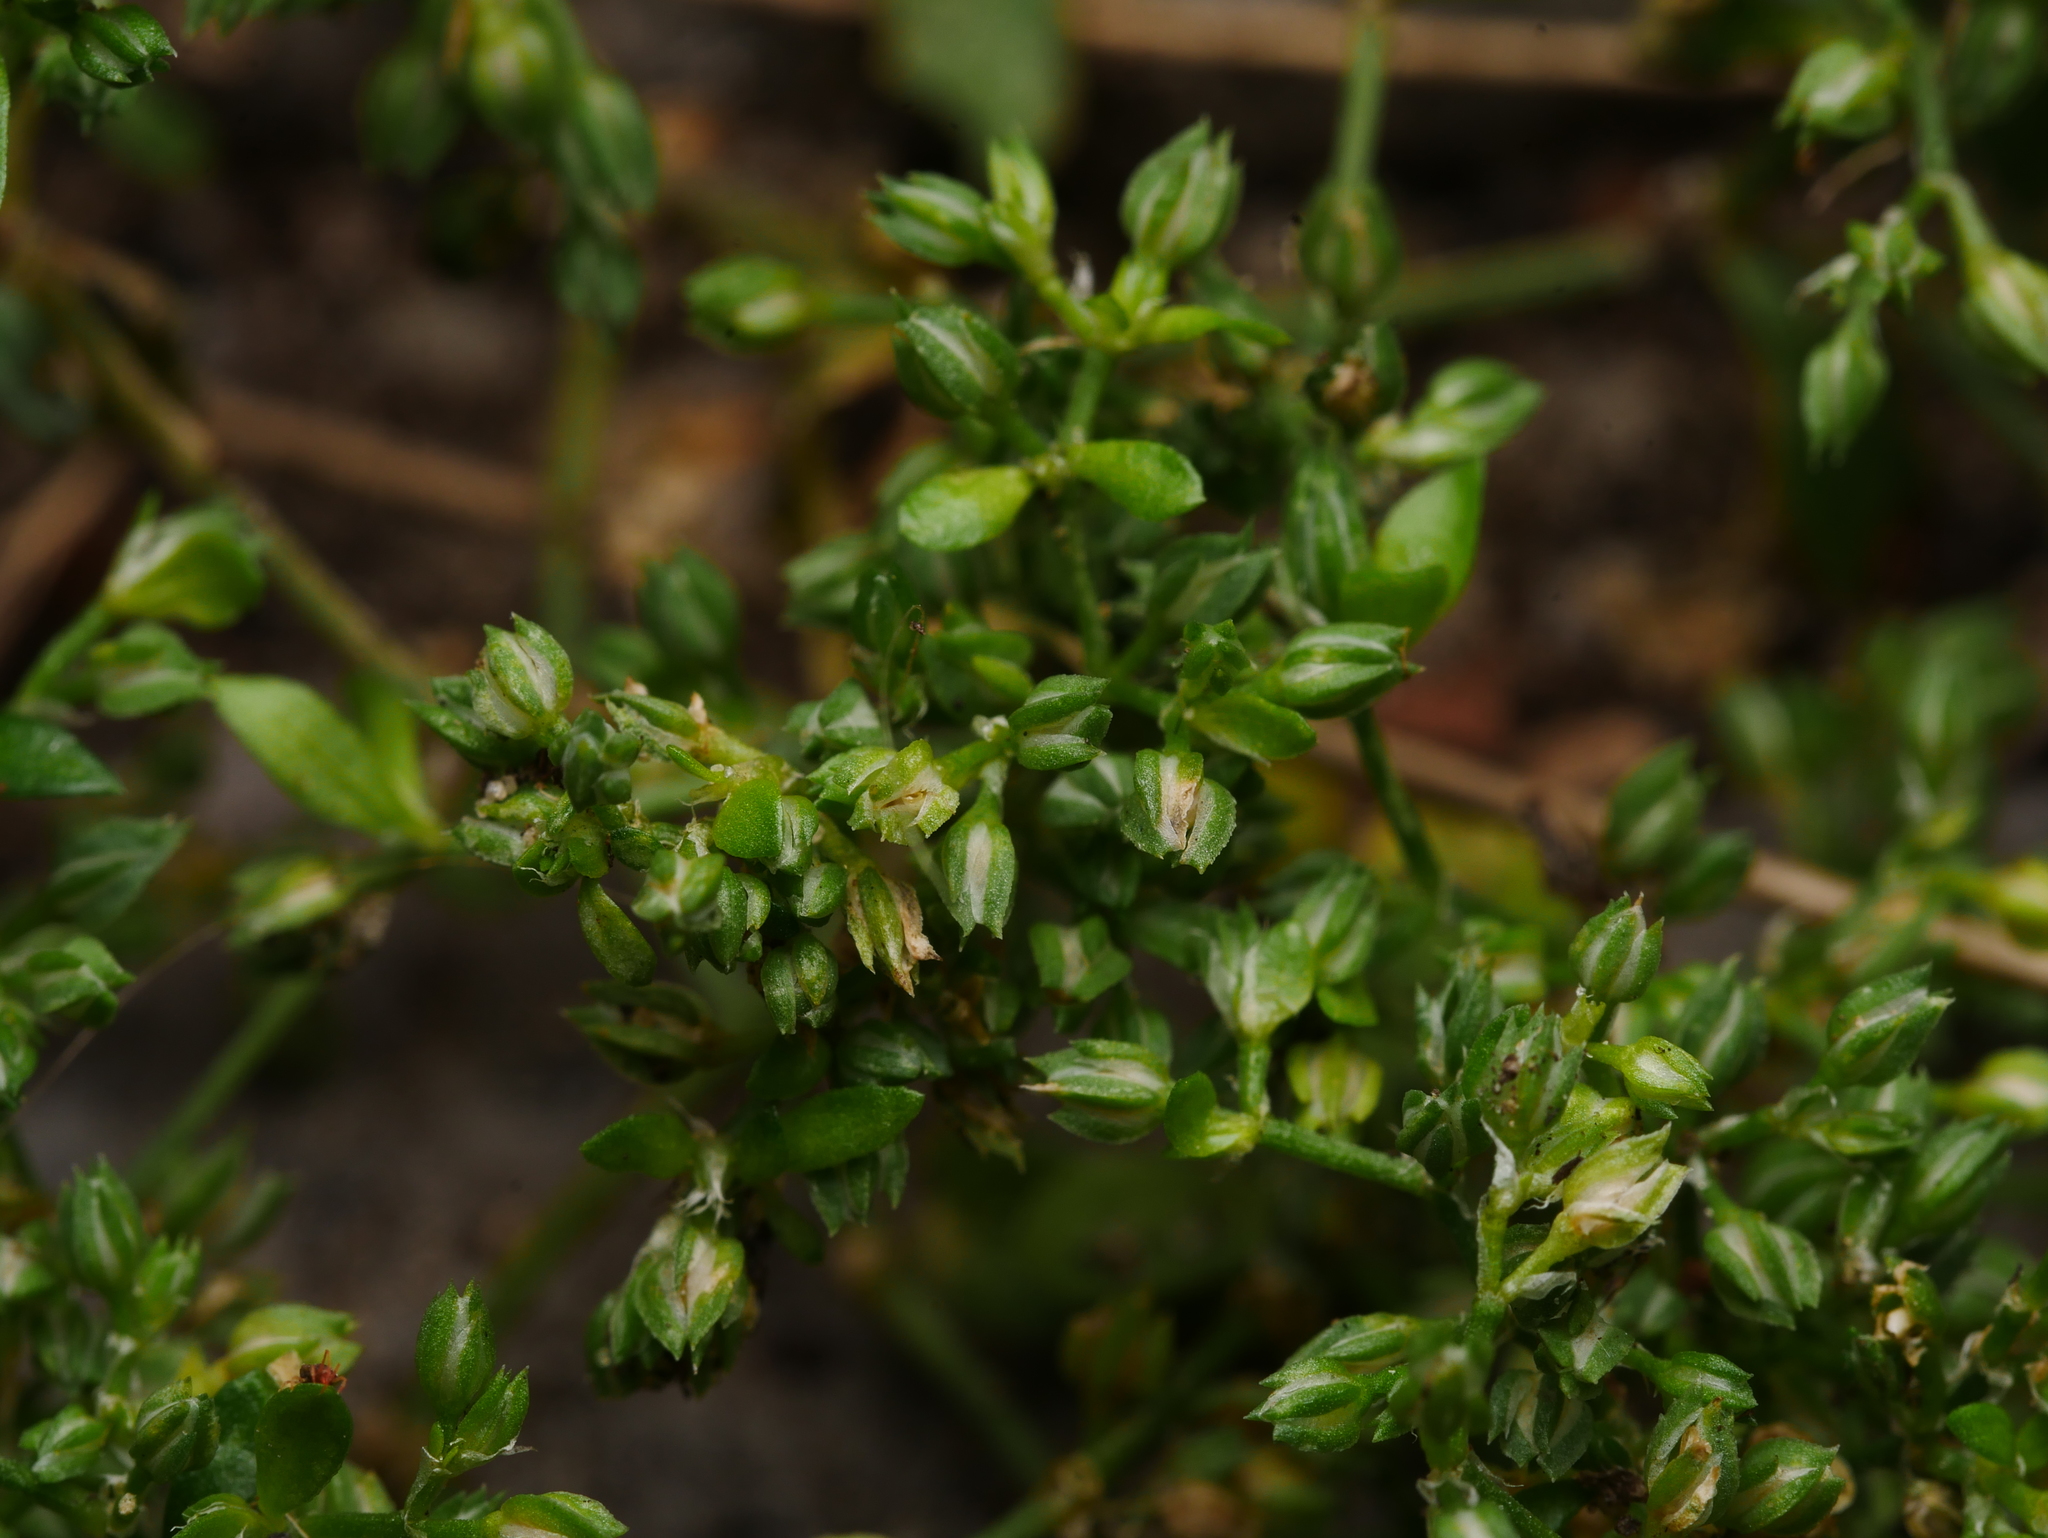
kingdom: Plantae
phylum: Tracheophyta
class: Magnoliopsida
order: Caryophyllales
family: Caryophyllaceae
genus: Polycarpon
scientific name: Polycarpon tetraphyllum
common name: Four-leaved all-seed
